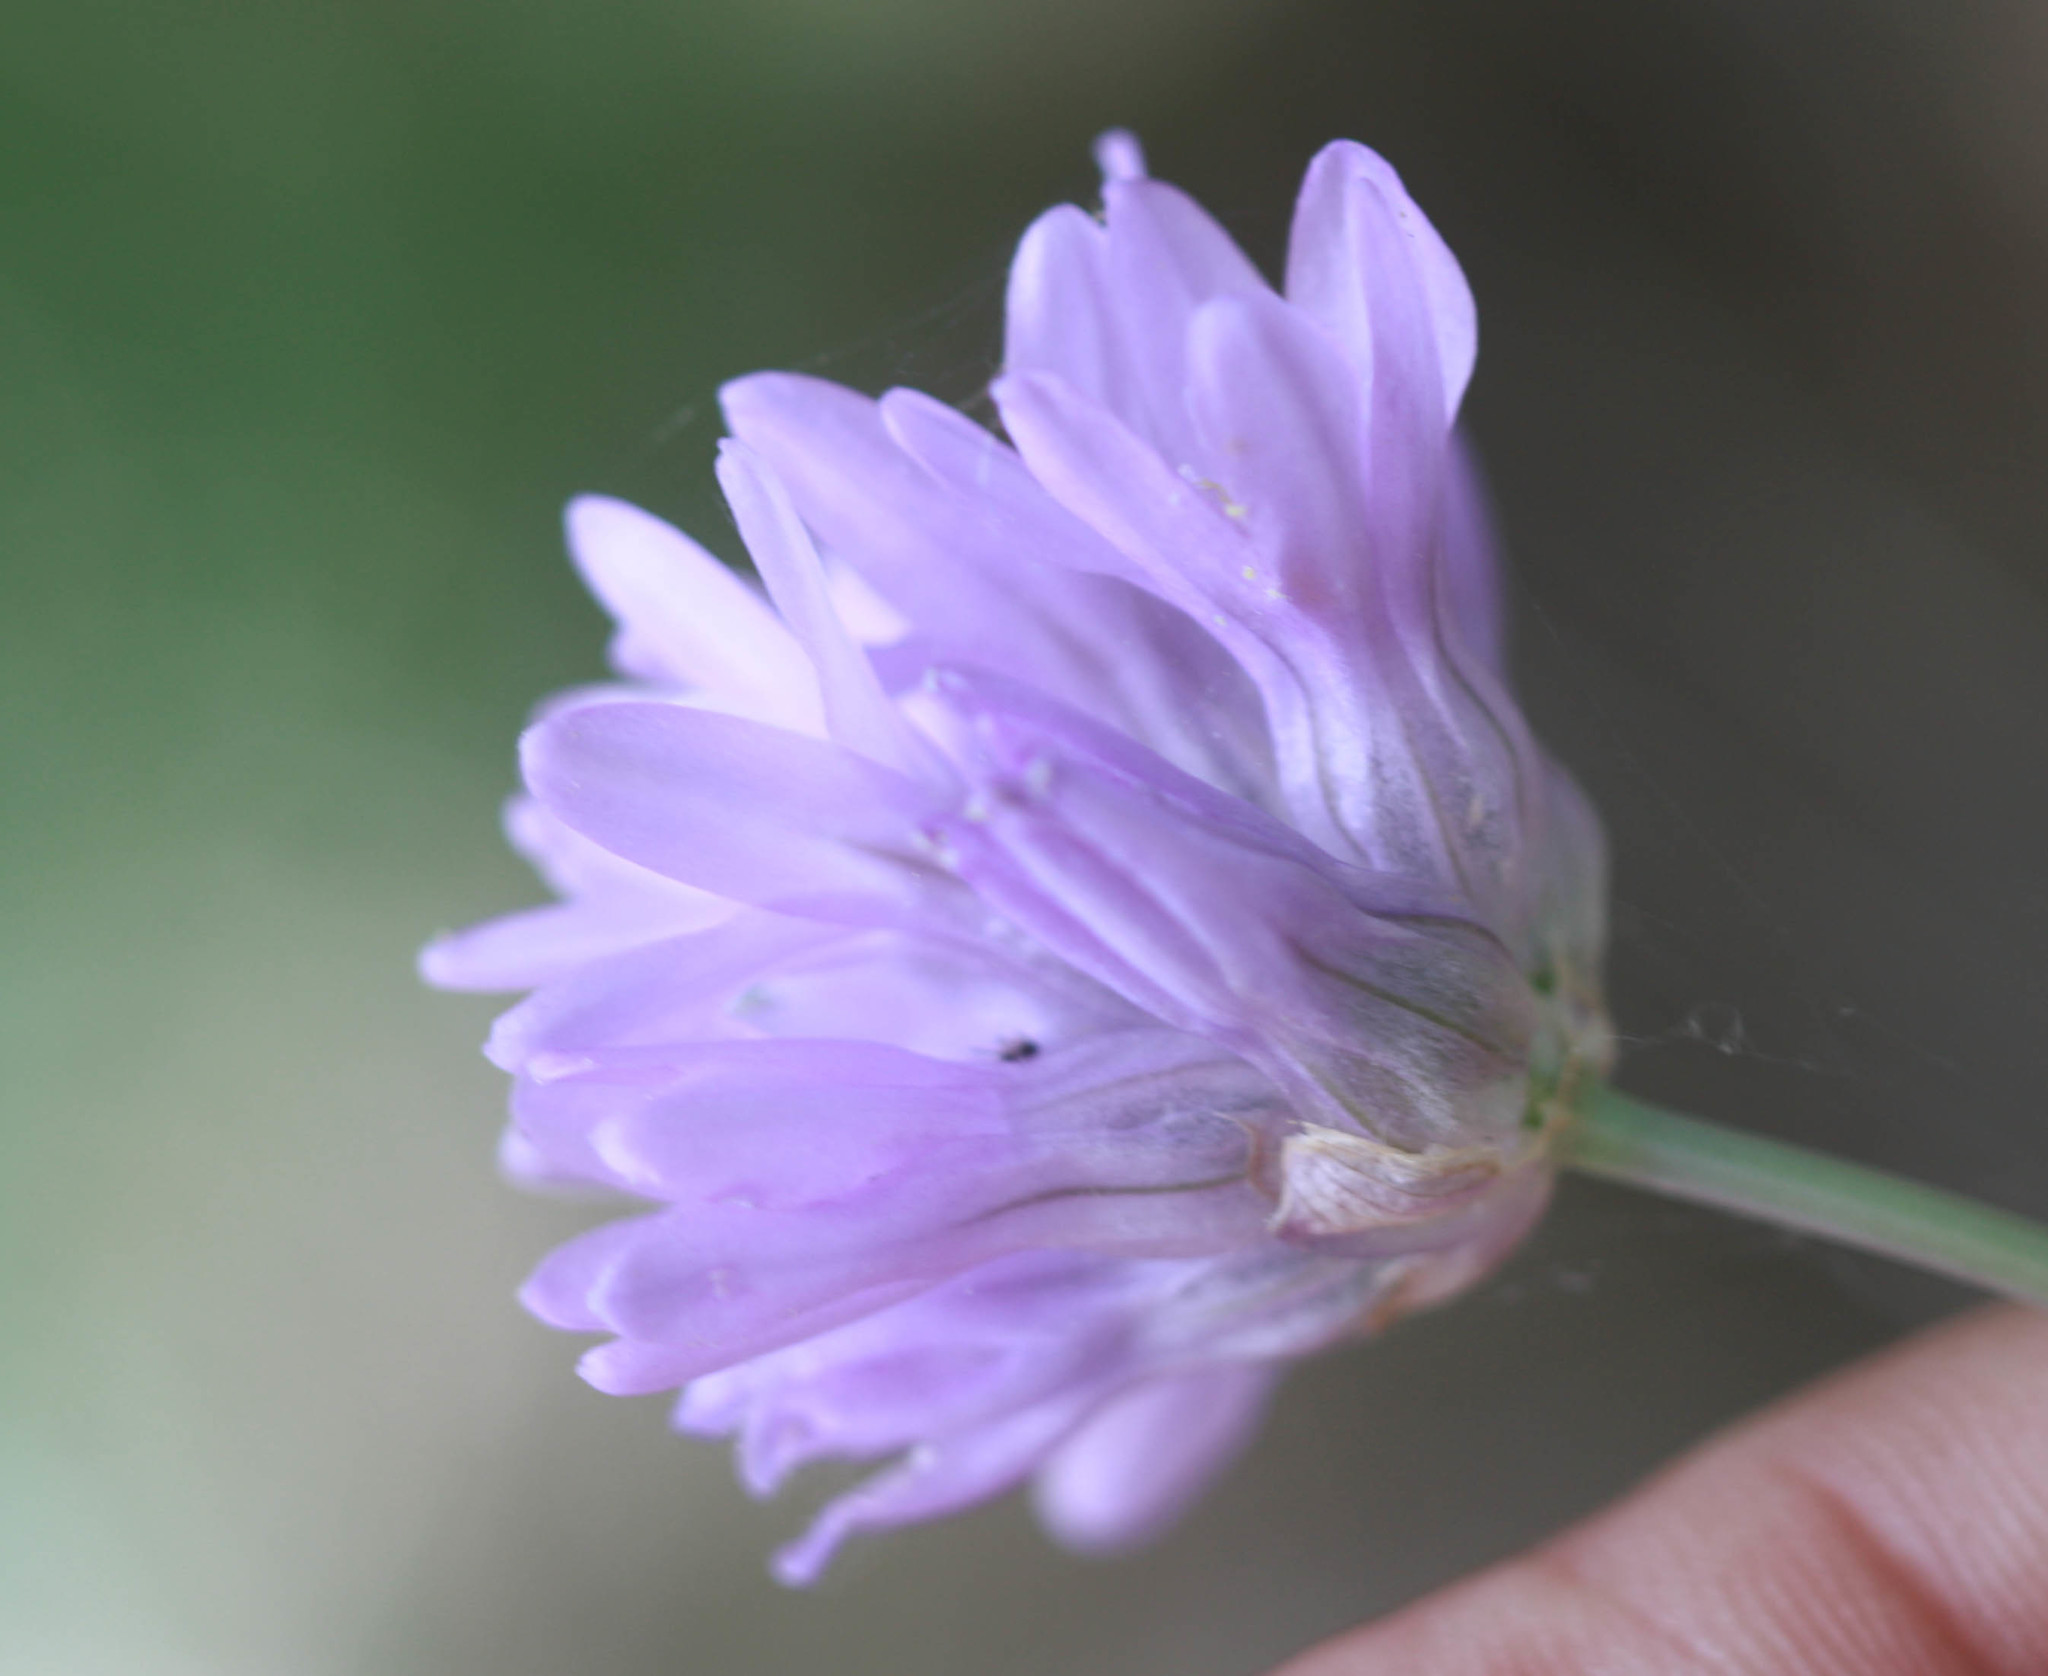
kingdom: Plantae
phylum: Tracheophyta
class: Liliopsida
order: Asparagales
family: Asparagaceae
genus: Dichelostemma
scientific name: Dichelostemma congestum
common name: Fork-tooth ookow
